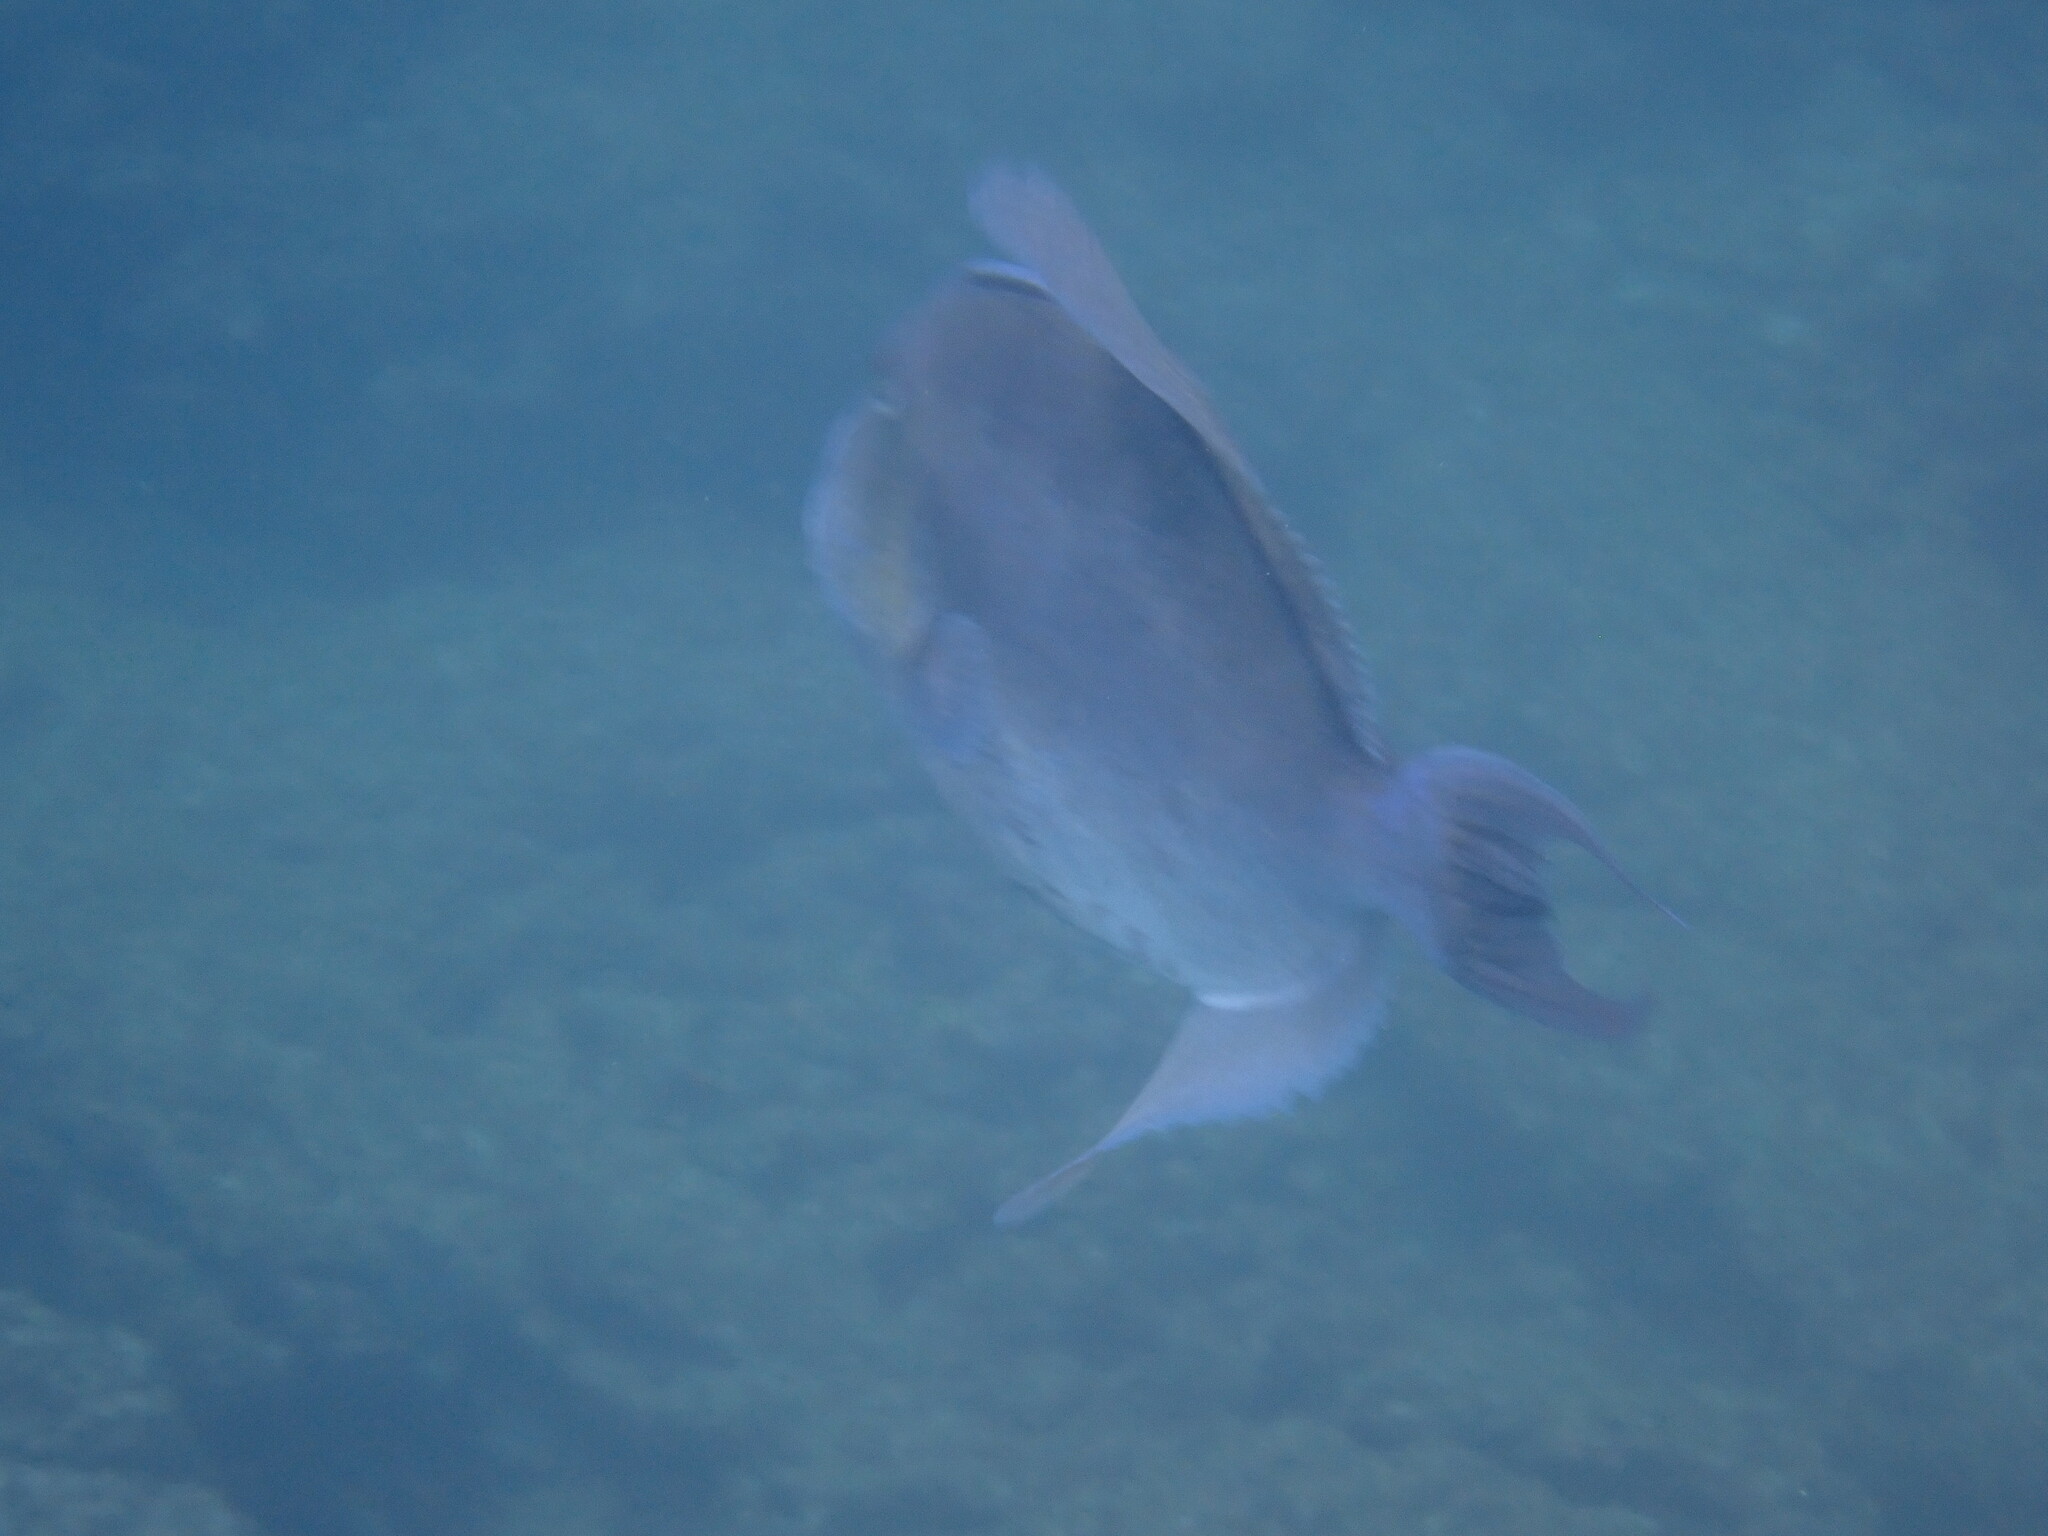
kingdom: Animalia
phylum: Chordata
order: Tetraodontiformes
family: Balistidae
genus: Balistes
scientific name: Balistes polylepis
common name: Finescale triggerfish
